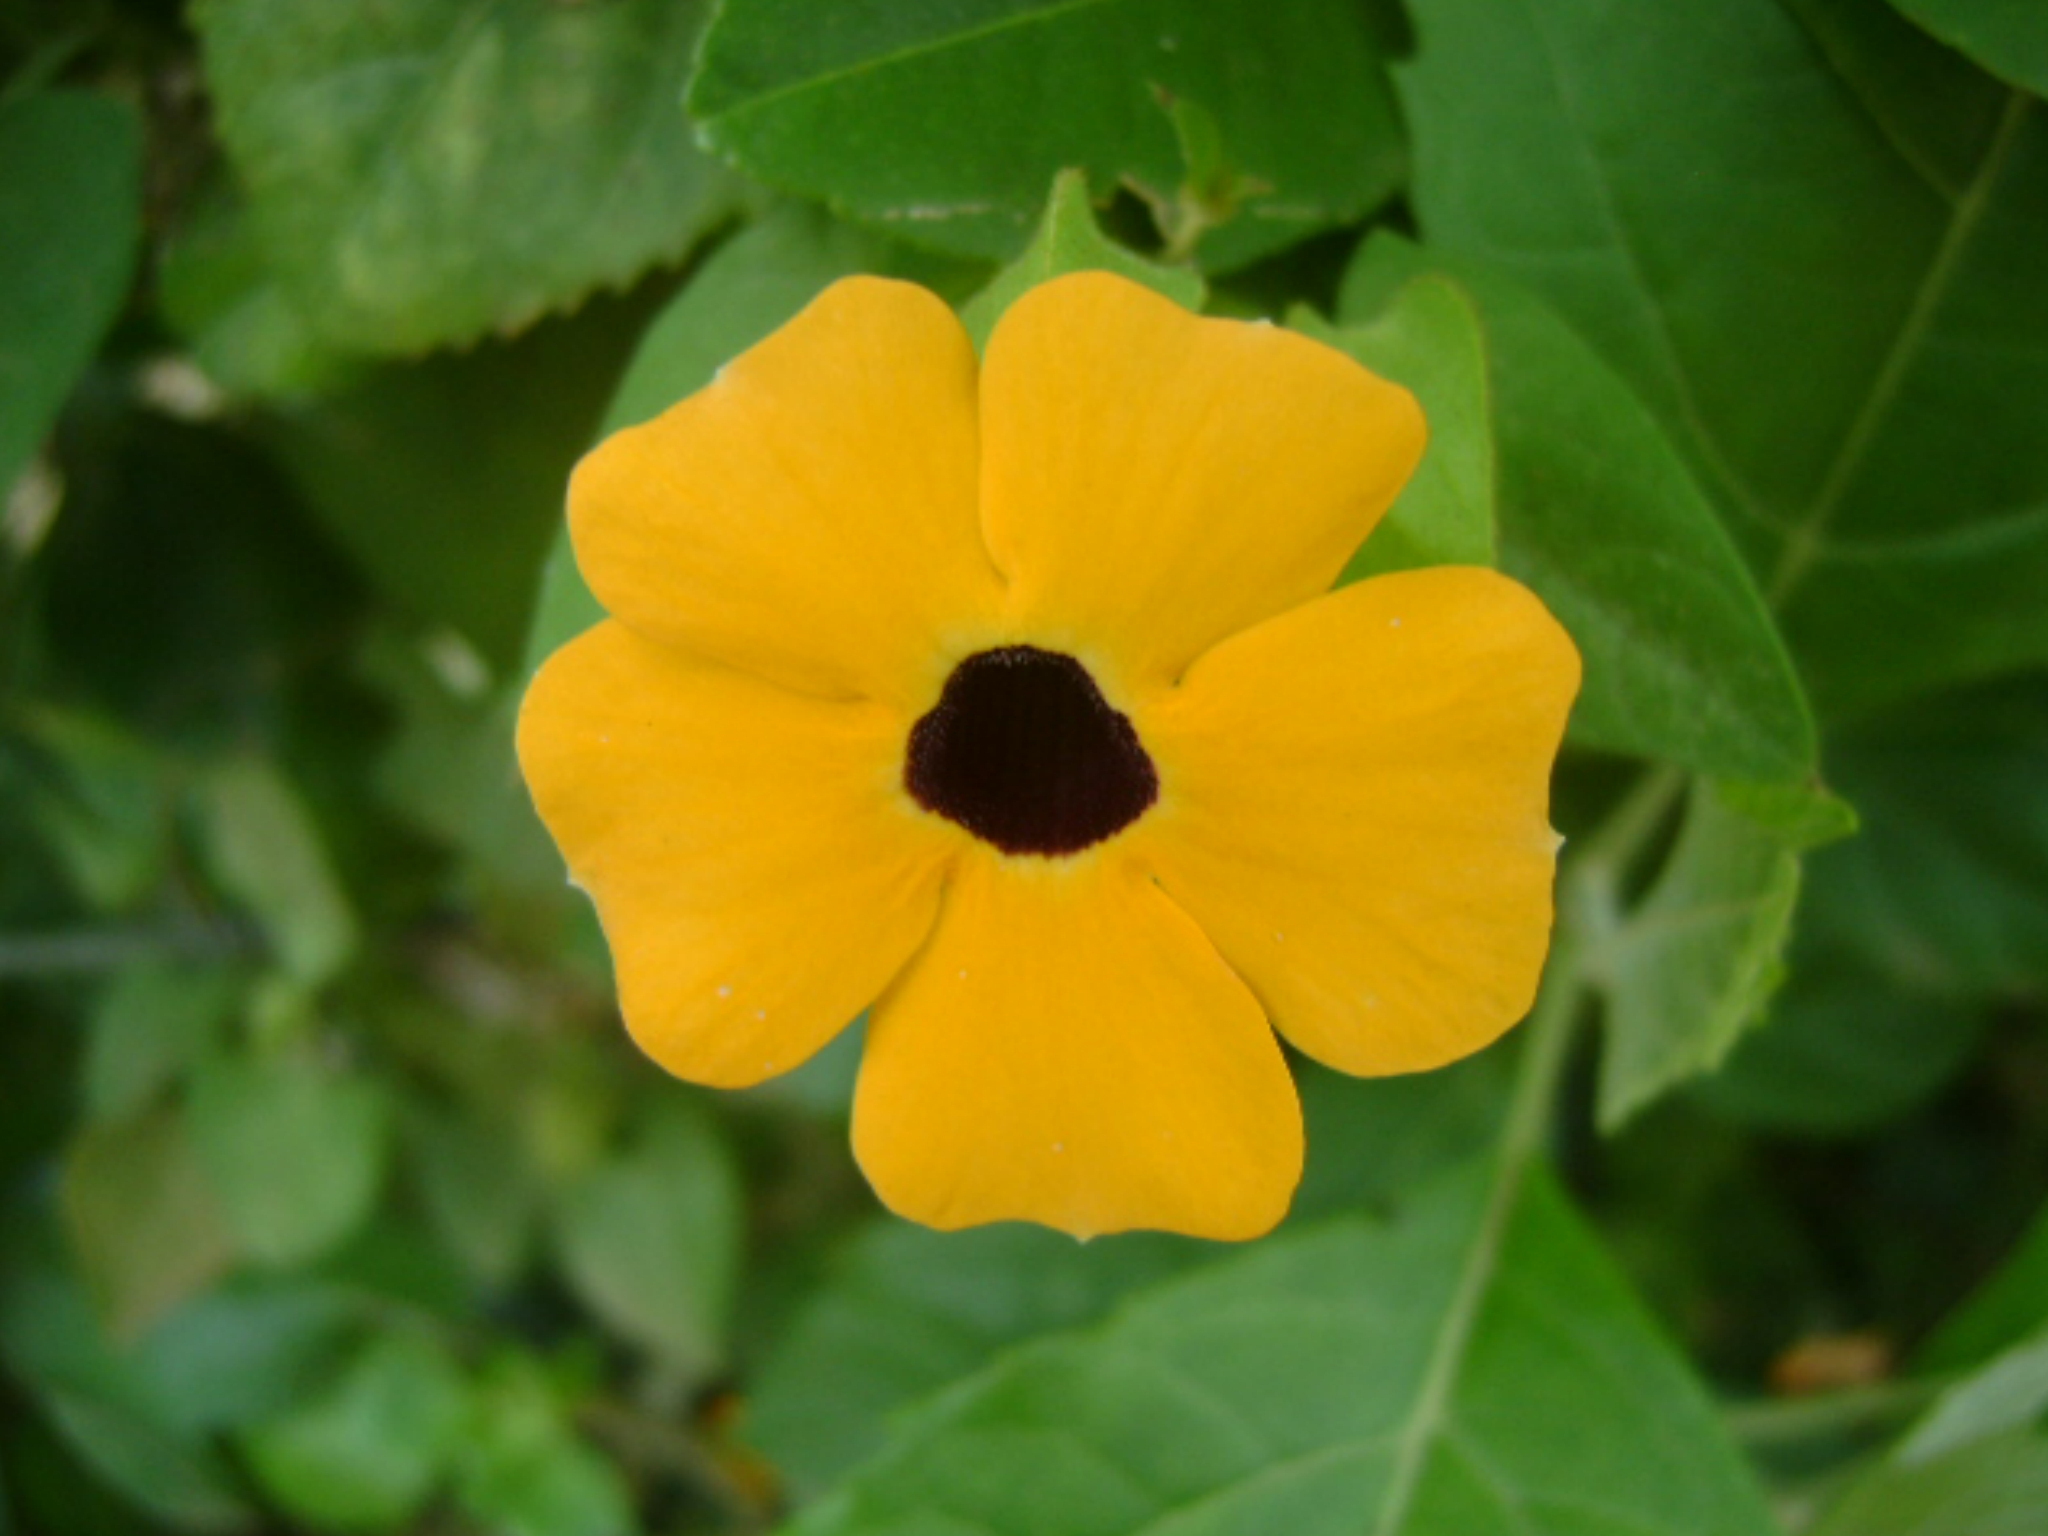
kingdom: Plantae
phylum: Tracheophyta
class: Magnoliopsida
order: Lamiales
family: Acanthaceae
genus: Thunbergia
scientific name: Thunbergia alata
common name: Blackeyed susan vine
